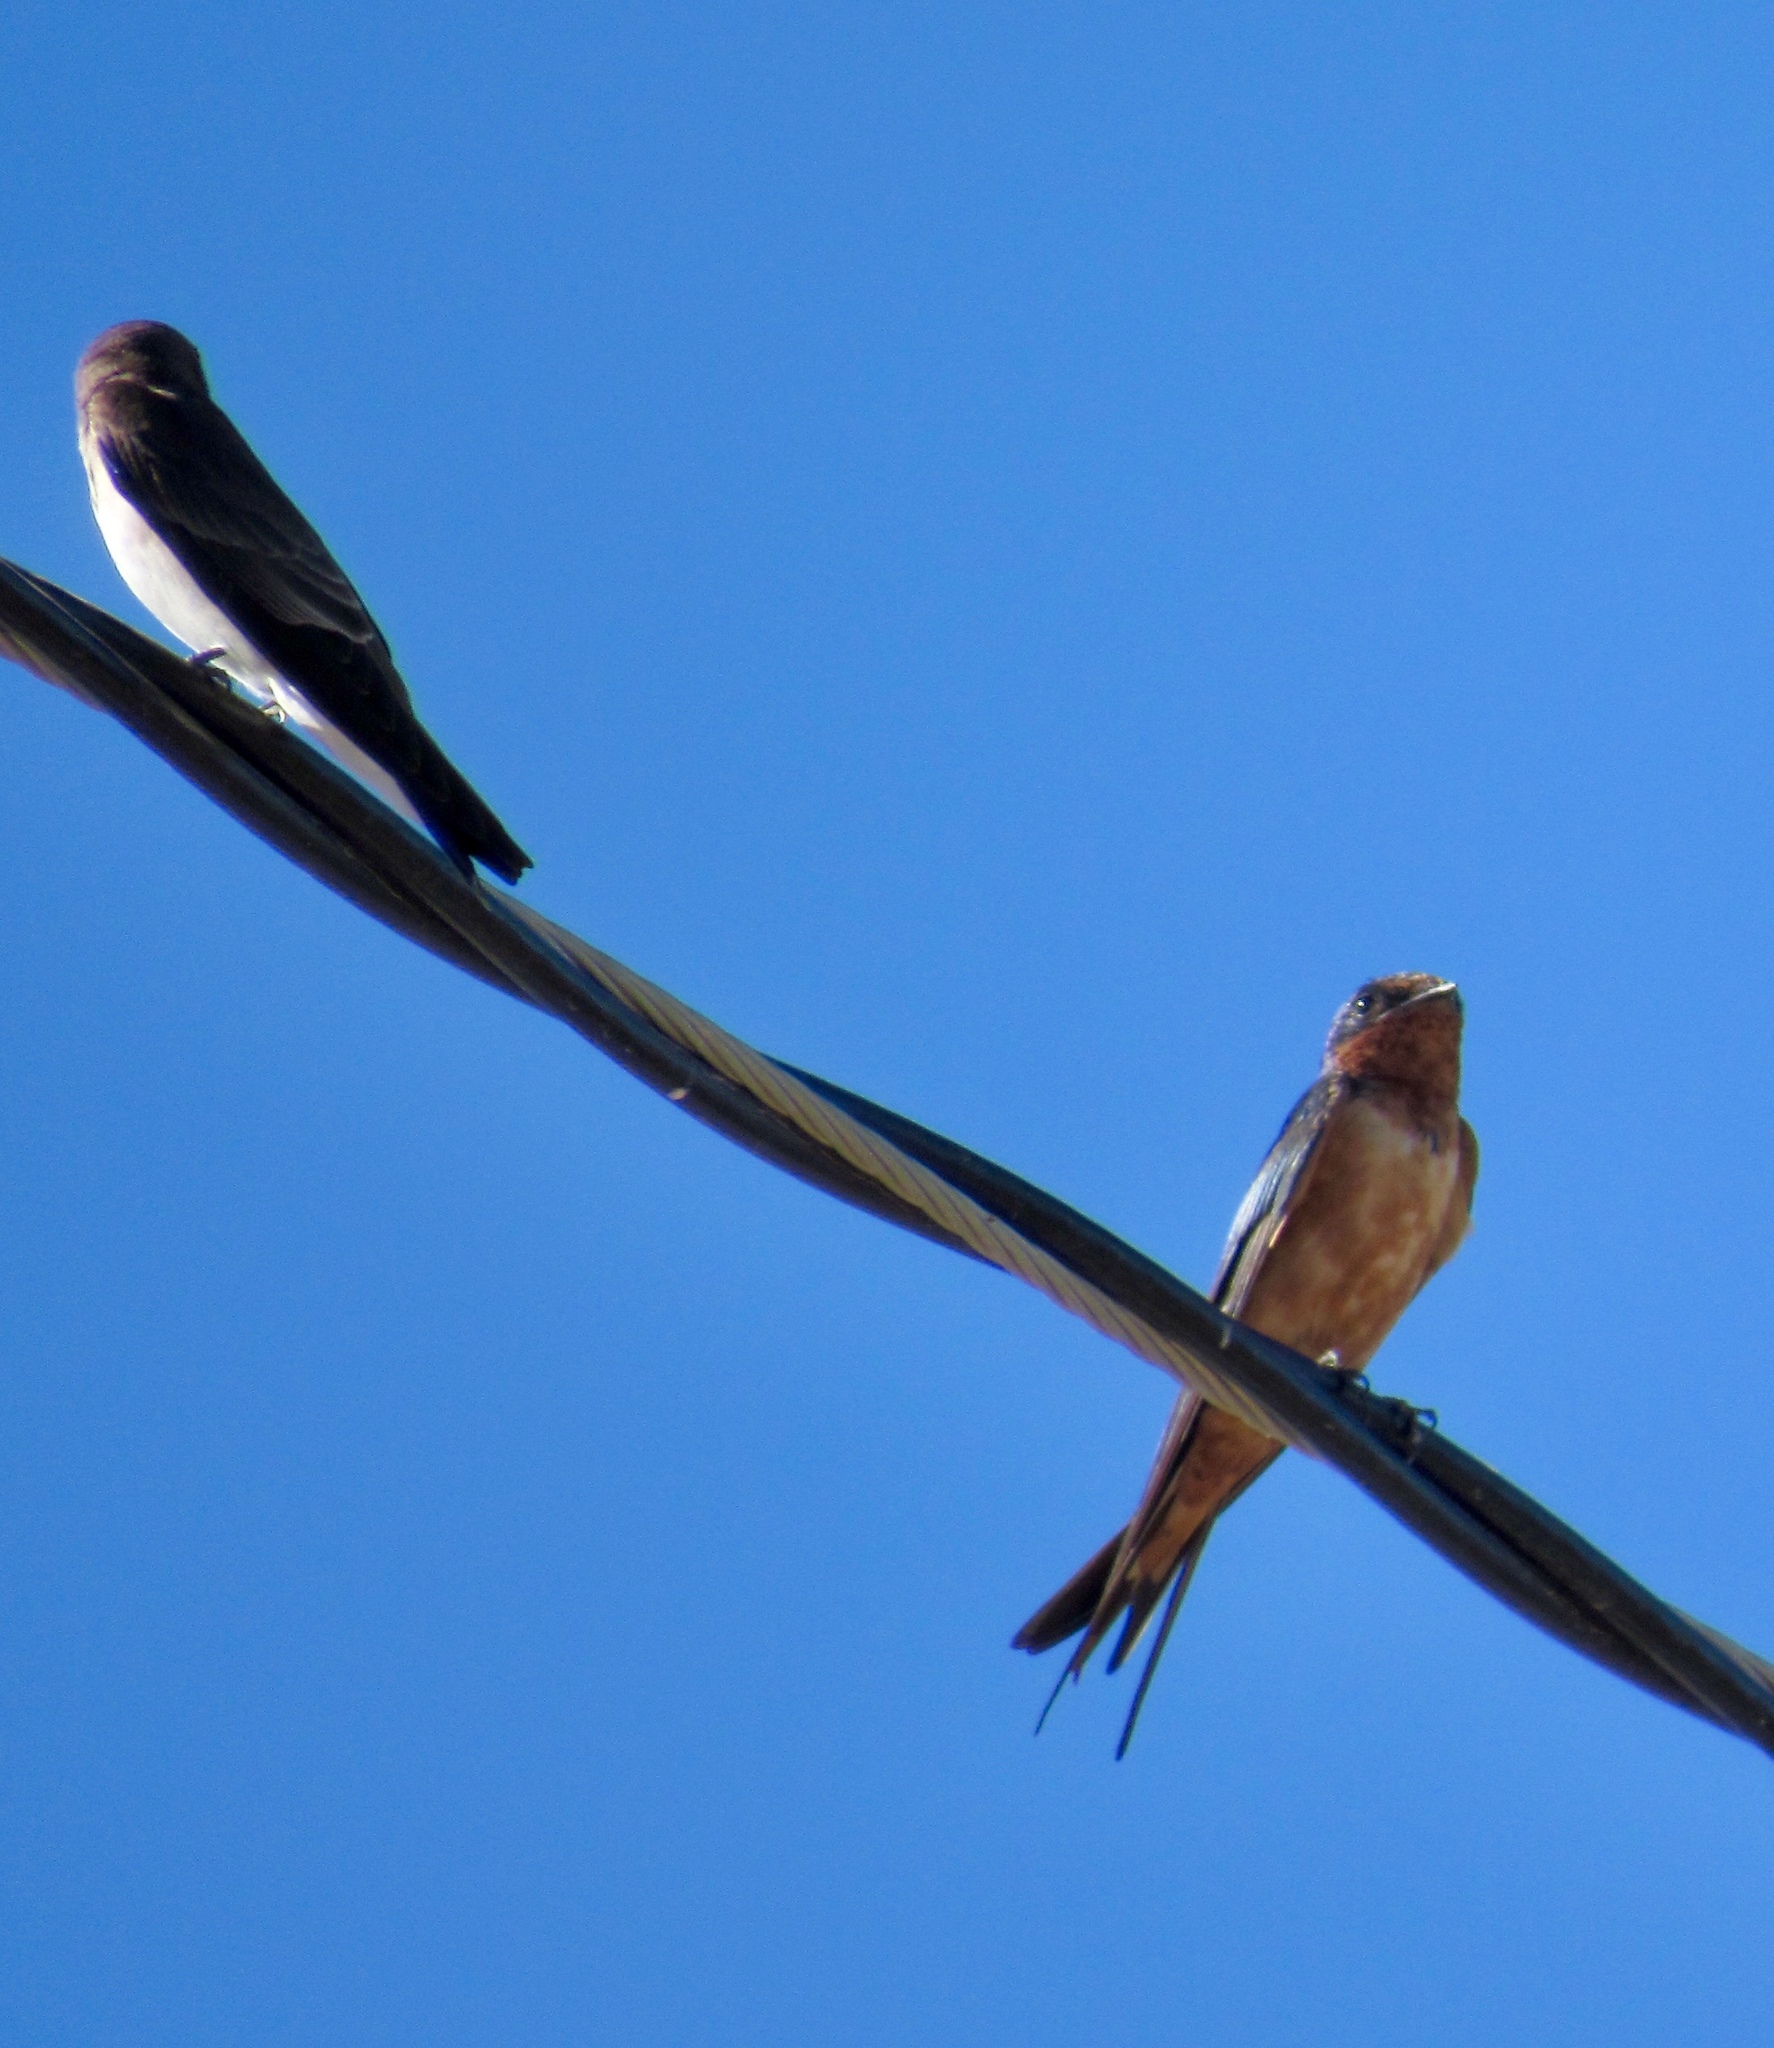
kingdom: Animalia
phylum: Chordata
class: Aves
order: Passeriformes
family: Hirundinidae
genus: Hirundo
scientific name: Hirundo rustica
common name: Barn swallow
